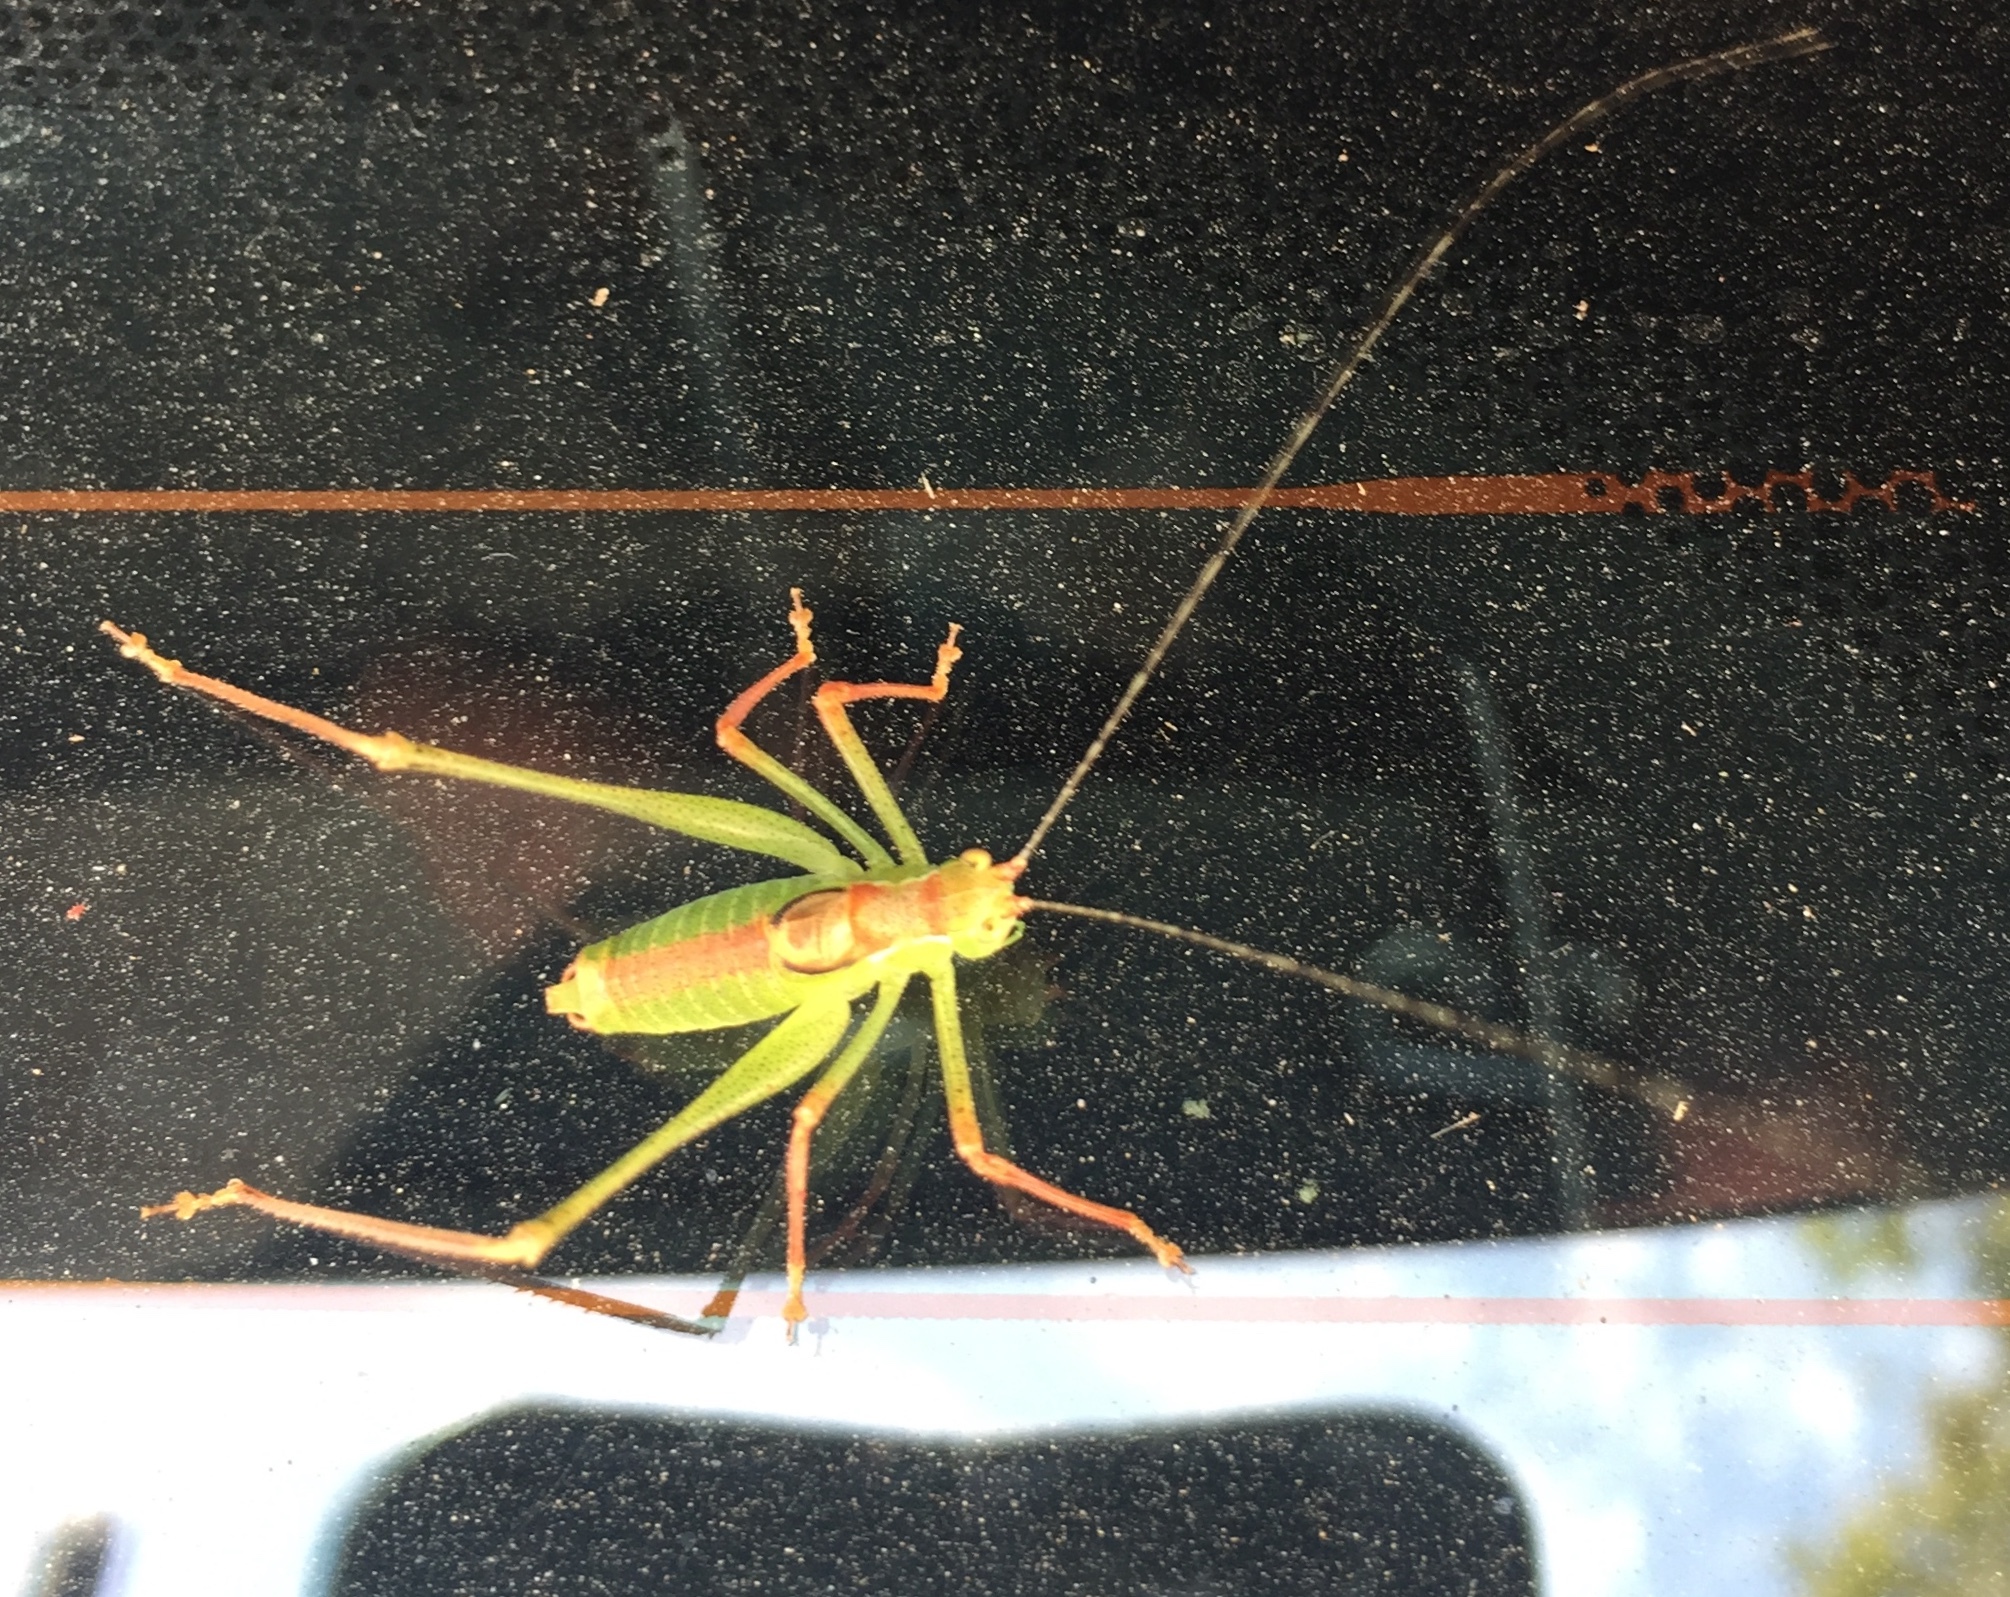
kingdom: Animalia
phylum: Arthropoda
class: Insecta
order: Orthoptera
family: Tettigoniidae
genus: Leptophyes
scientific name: Leptophyes punctatissima
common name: Speckled bush-cricket
